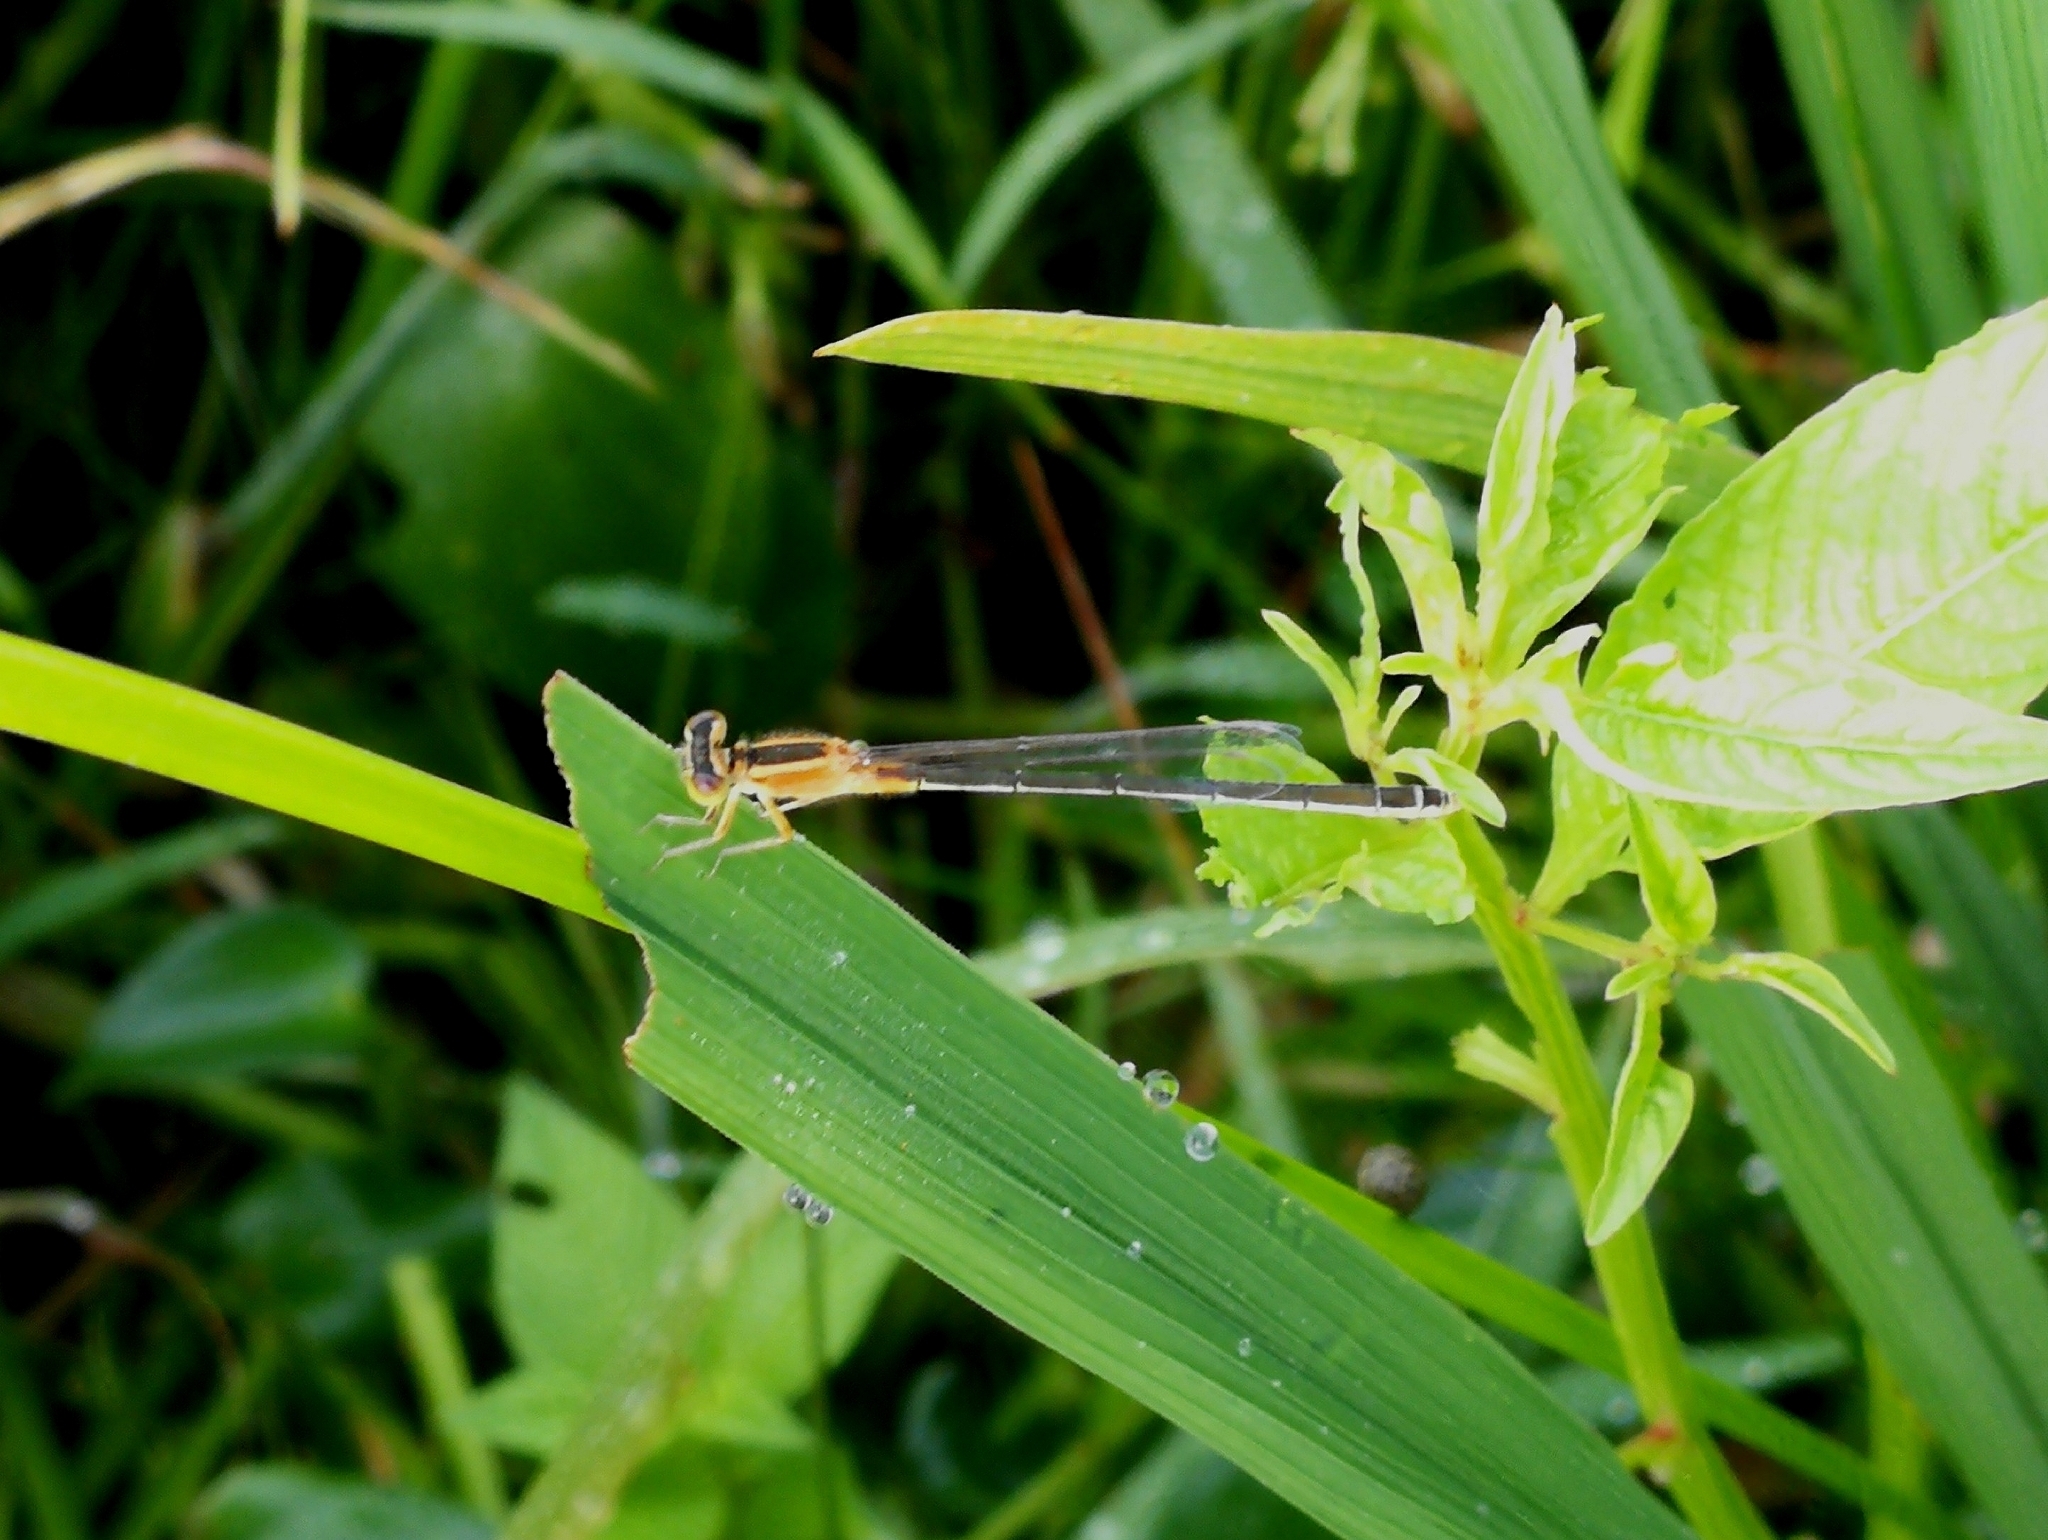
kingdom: Animalia
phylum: Arthropoda
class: Insecta
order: Odonata
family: Coenagrionidae
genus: Ischnura
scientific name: Ischnura senegalensis
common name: Tropical bluetail
